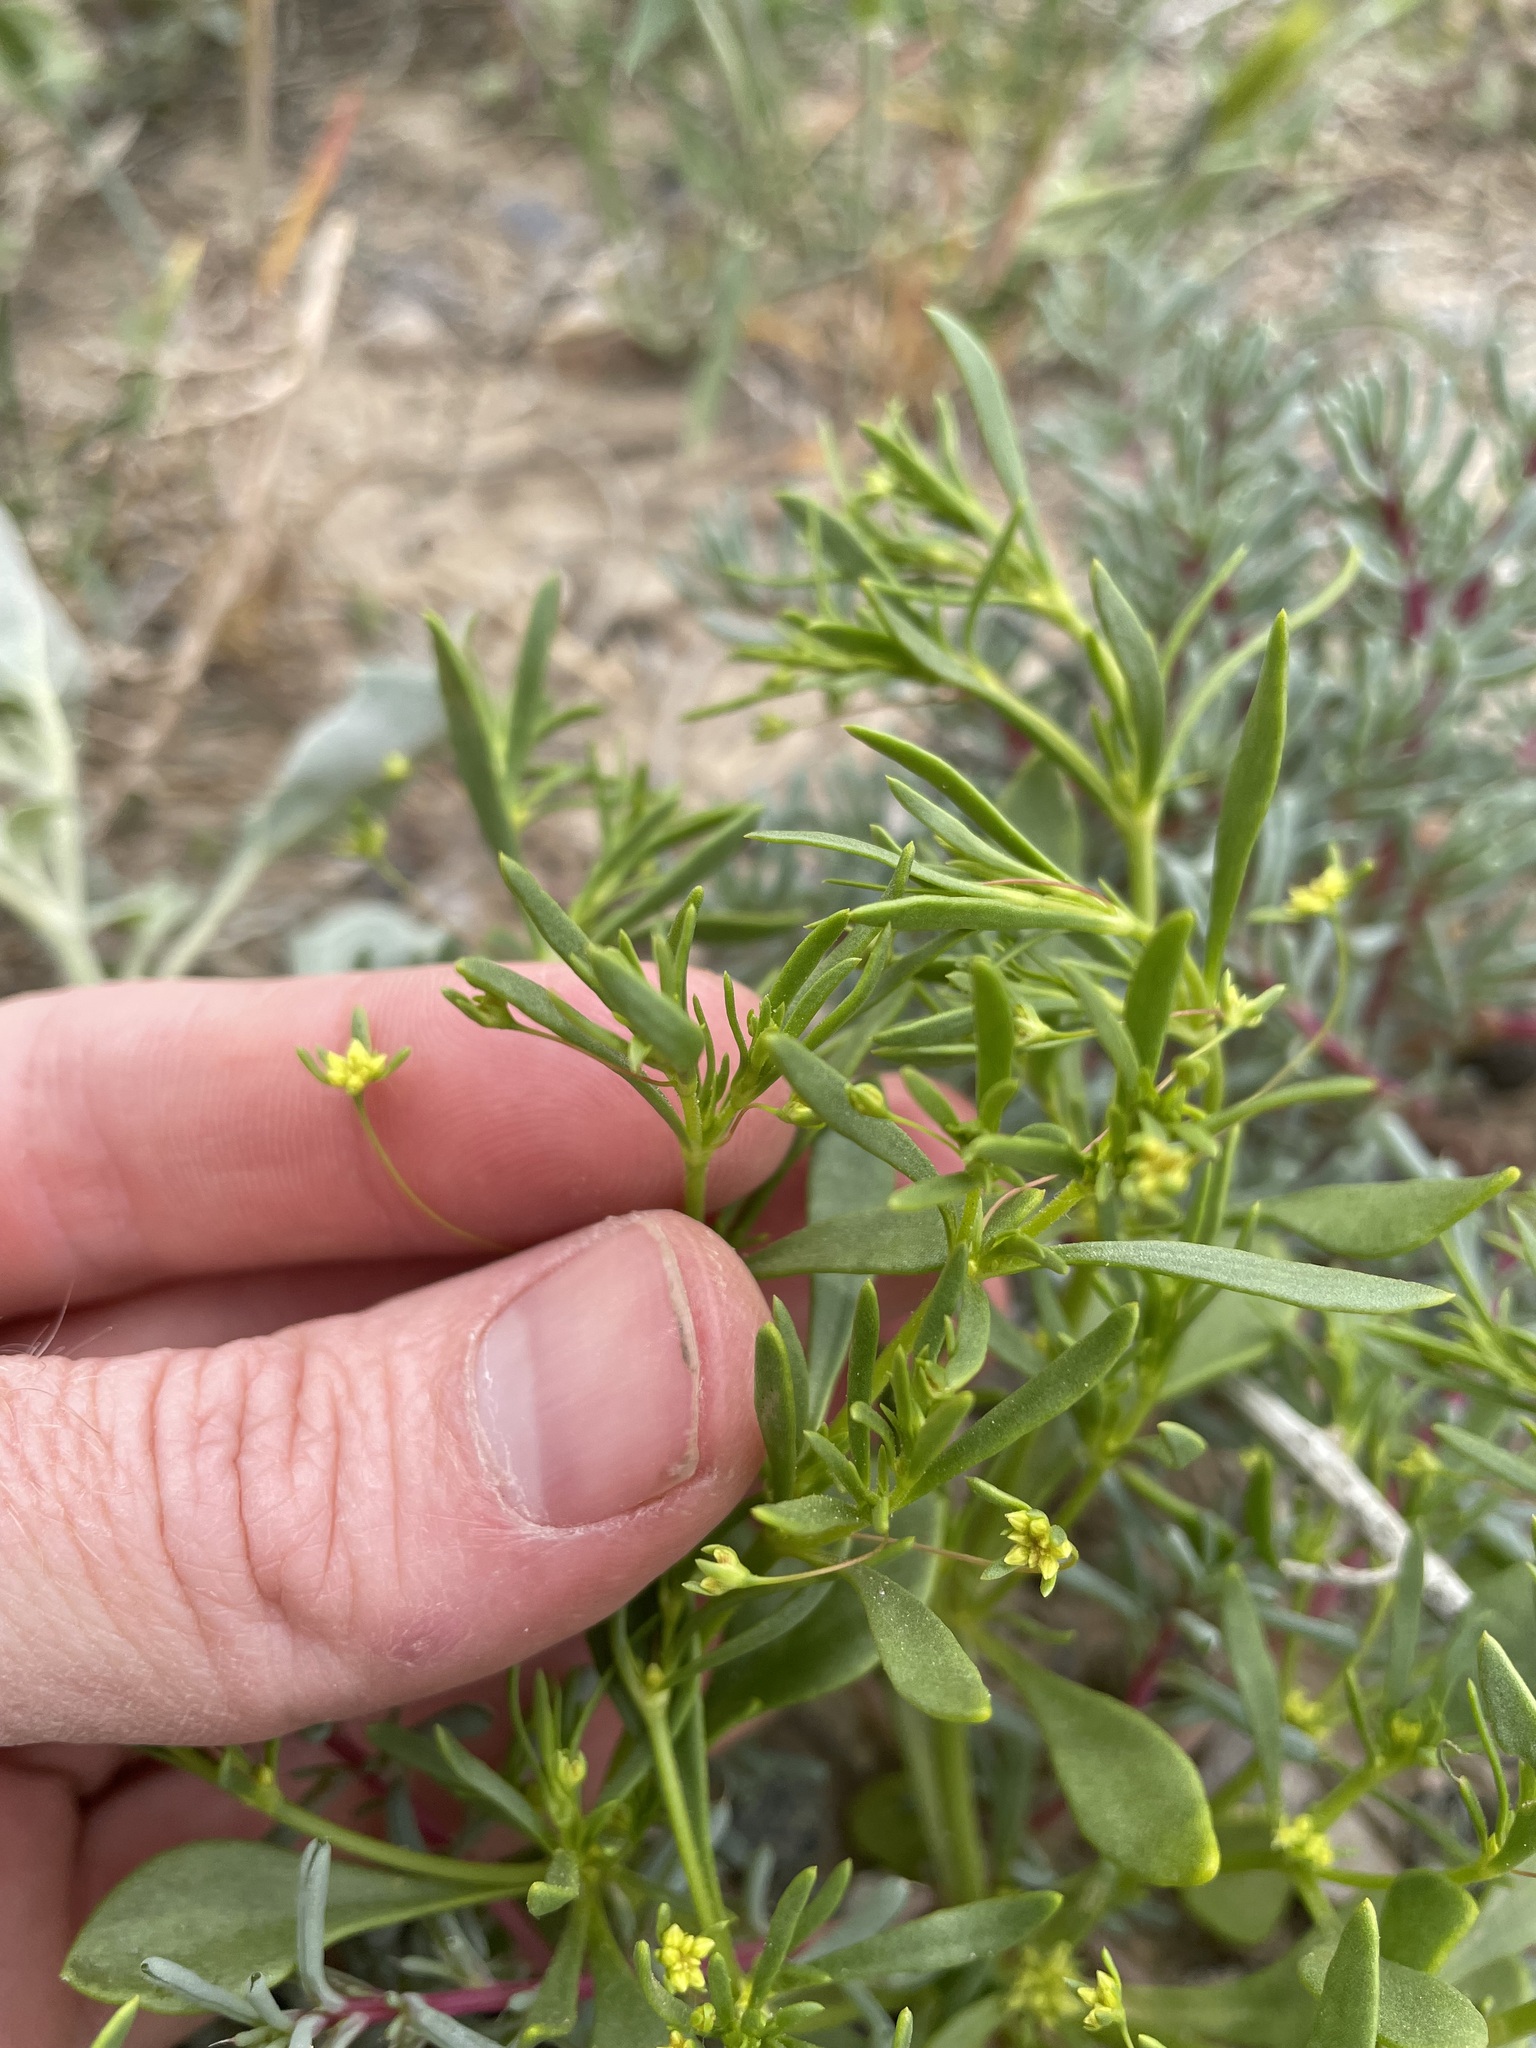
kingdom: Plantae
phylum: Tracheophyta
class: Magnoliopsida
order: Caryophyllales
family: Polygonaceae
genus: Stenogonum
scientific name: Stenogonum salsuginosum
